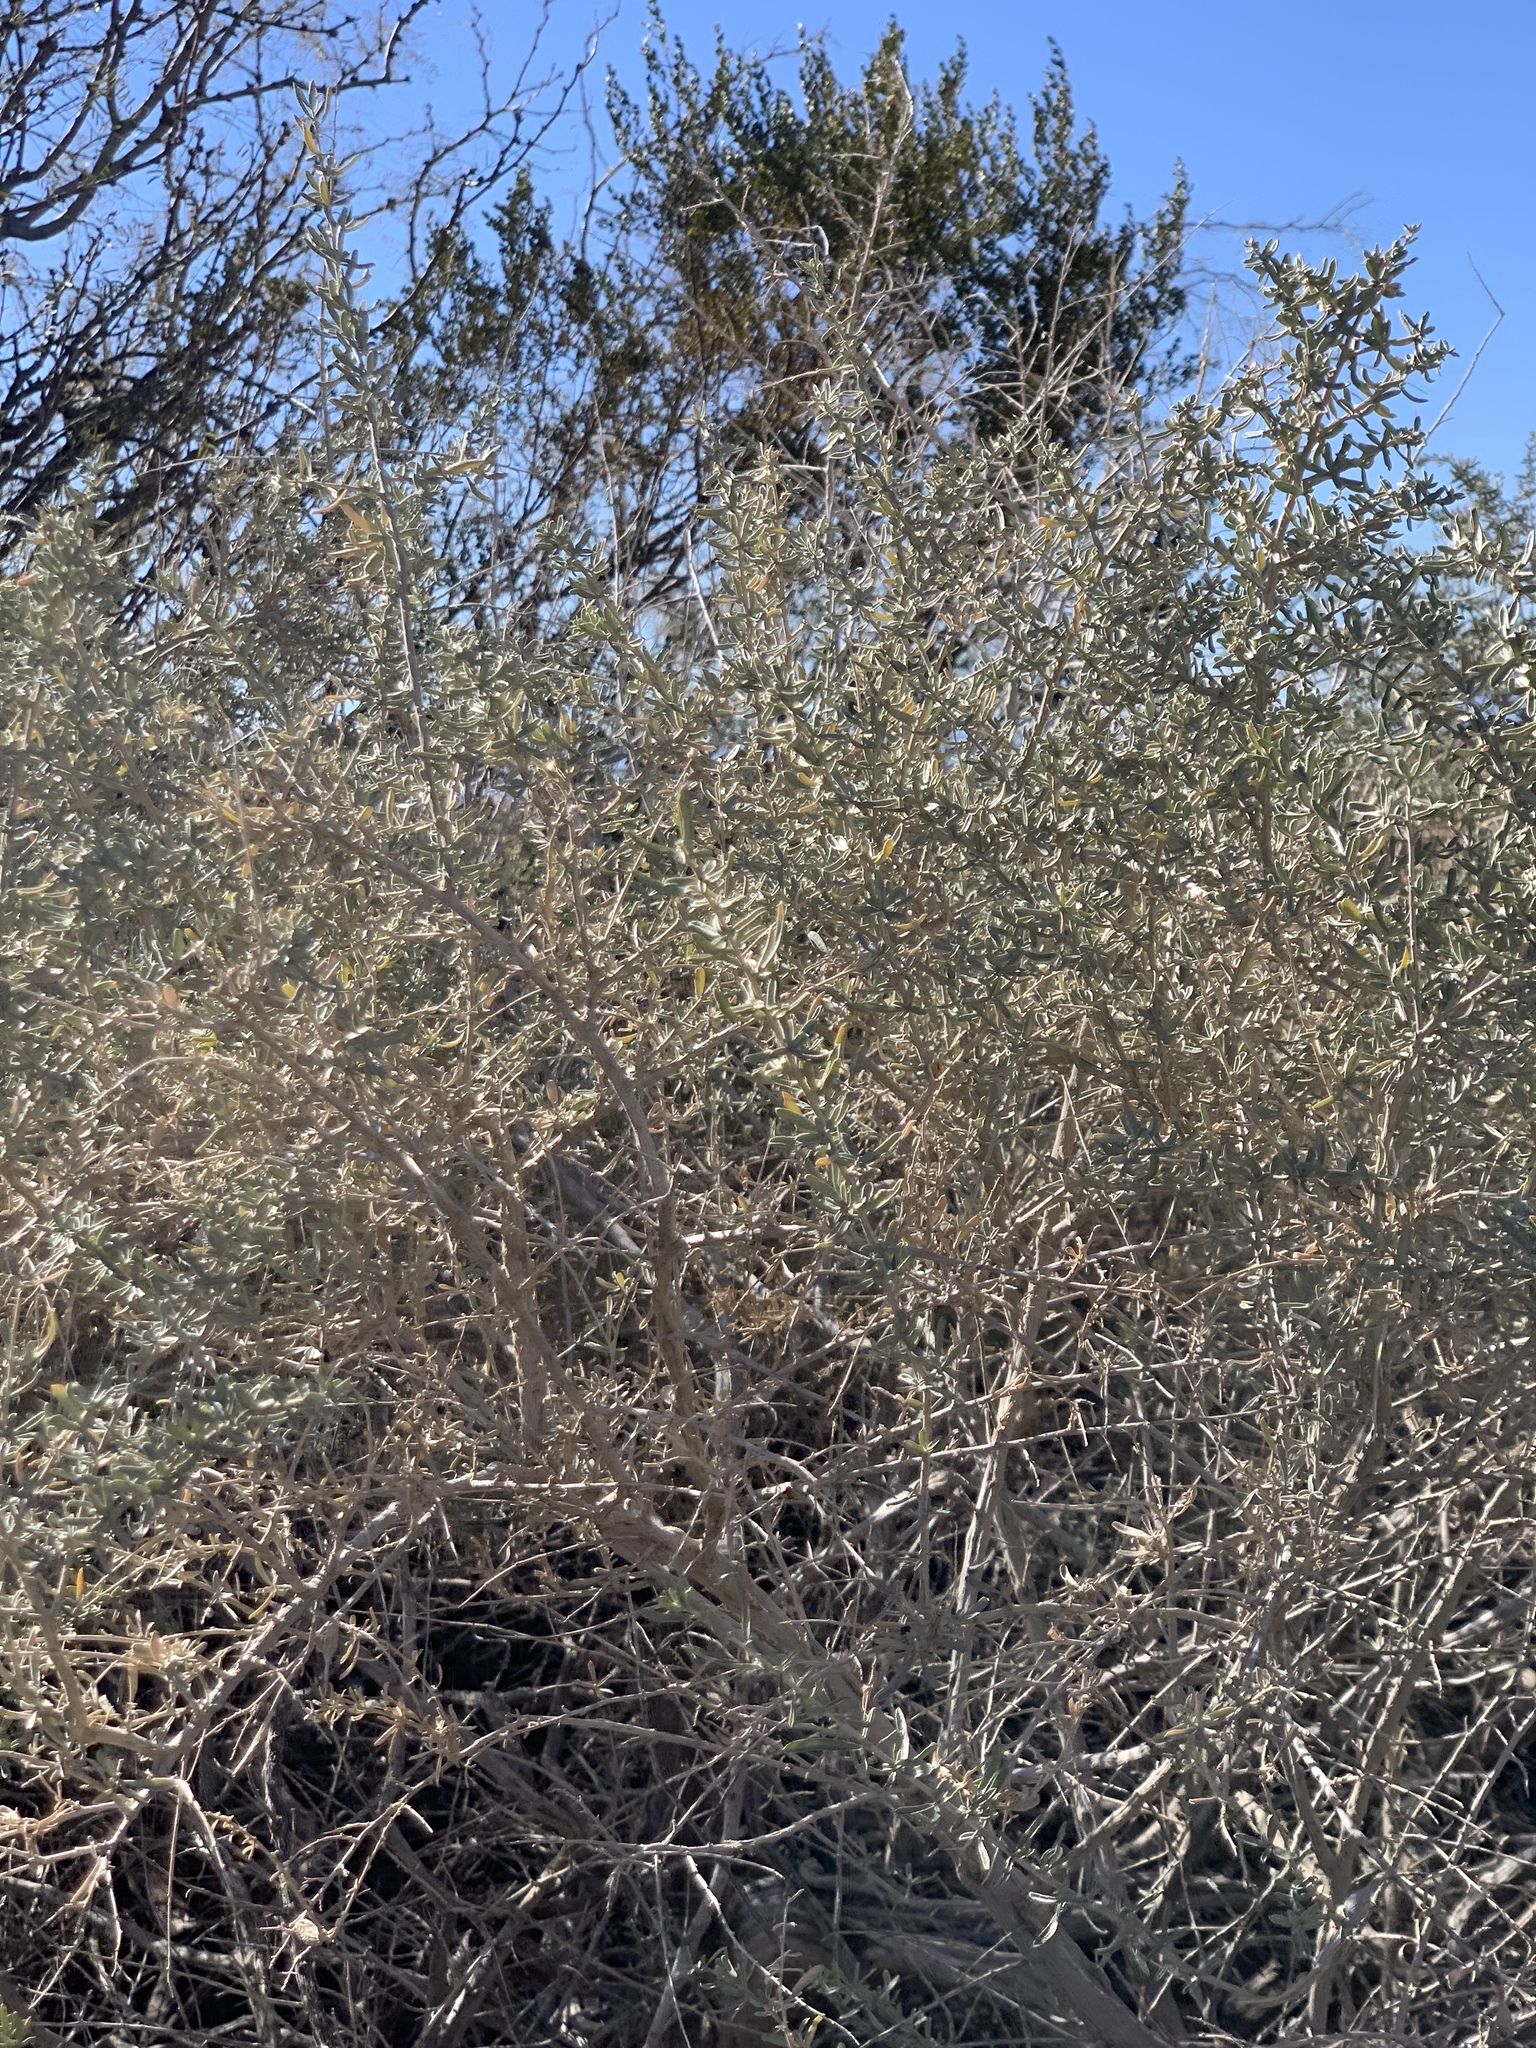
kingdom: Plantae
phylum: Tracheophyta
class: Magnoliopsida
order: Caryophyllales
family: Amaranthaceae
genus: Atriplex
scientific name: Atriplex canescens
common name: Four-wing saltbush
